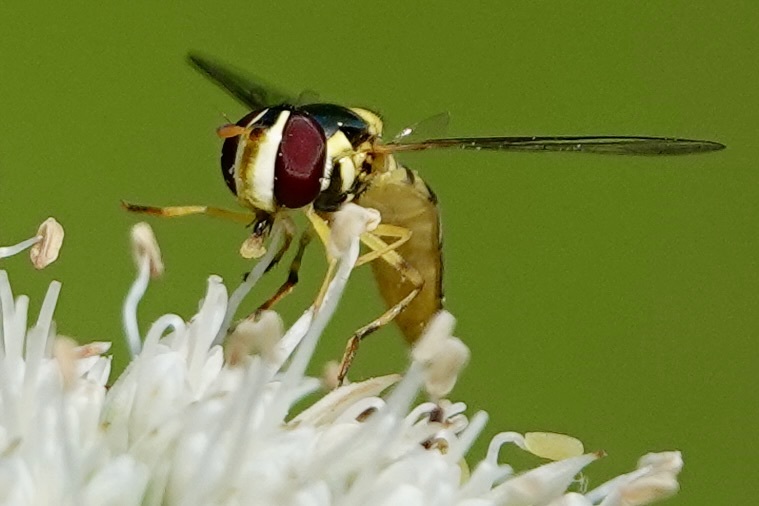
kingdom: Animalia
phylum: Arthropoda
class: Insecta
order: Diptera
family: Syrphidae
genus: Allograpta
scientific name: Allograpta obliqua
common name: Common oblique syrphid
